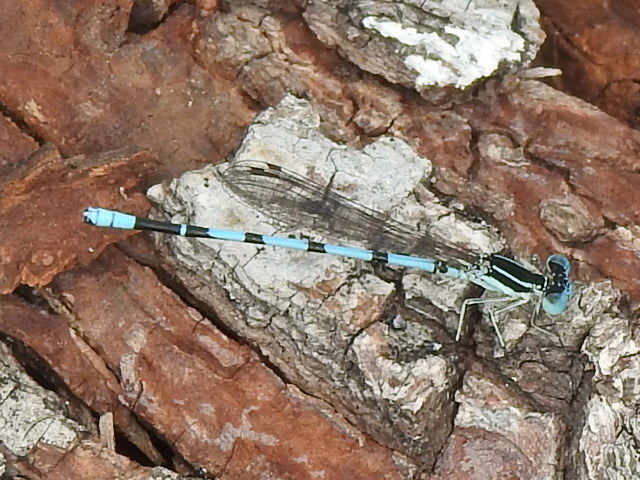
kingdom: Animalia
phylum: Arthropoda
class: Insecta
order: Odonata
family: Coenagrionidae
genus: Argia
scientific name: Argia bipunctulata
